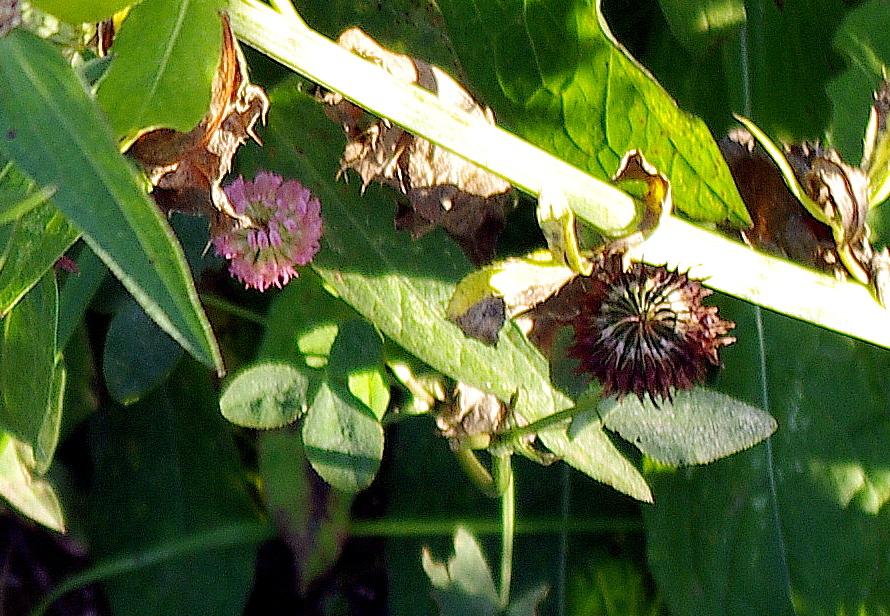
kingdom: Plantae
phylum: Tracheophyta
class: Magnoliopsida
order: Fabales
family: Fabaceae
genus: Trifolium
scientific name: Trifolium hybridum
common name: Alsike clover
